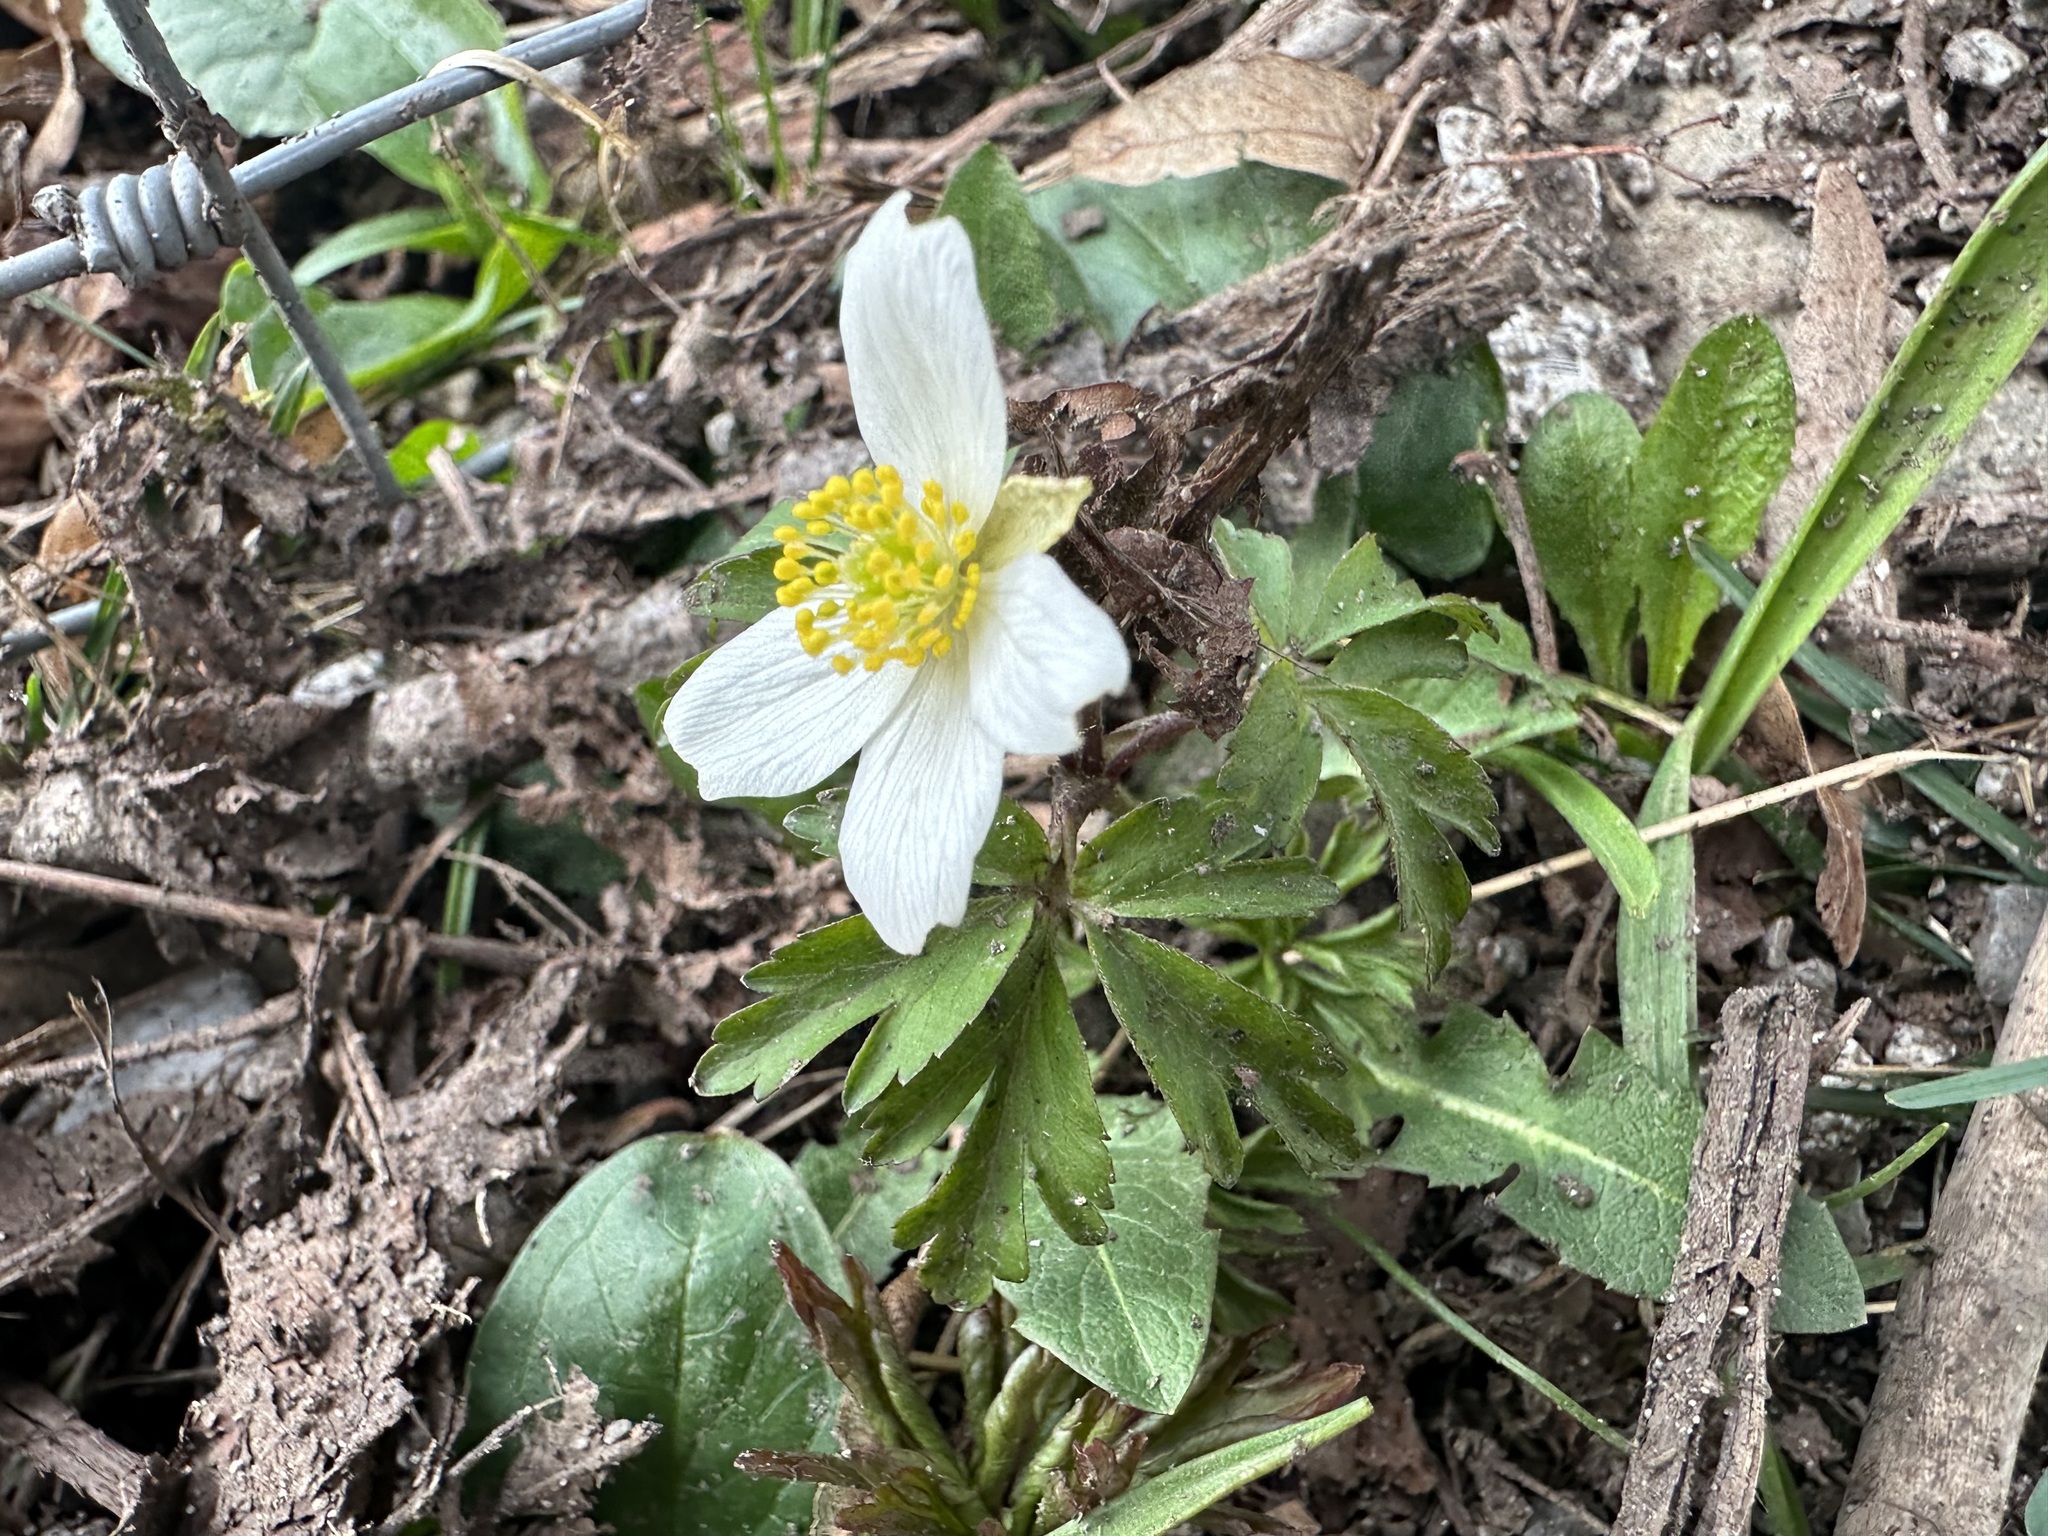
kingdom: Plantae
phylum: Tracheophyta
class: Magnoliopsida
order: Ranunculales
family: Ranunculaceae
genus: Anemone
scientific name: Anemone nemorosa
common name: Wood anemone
